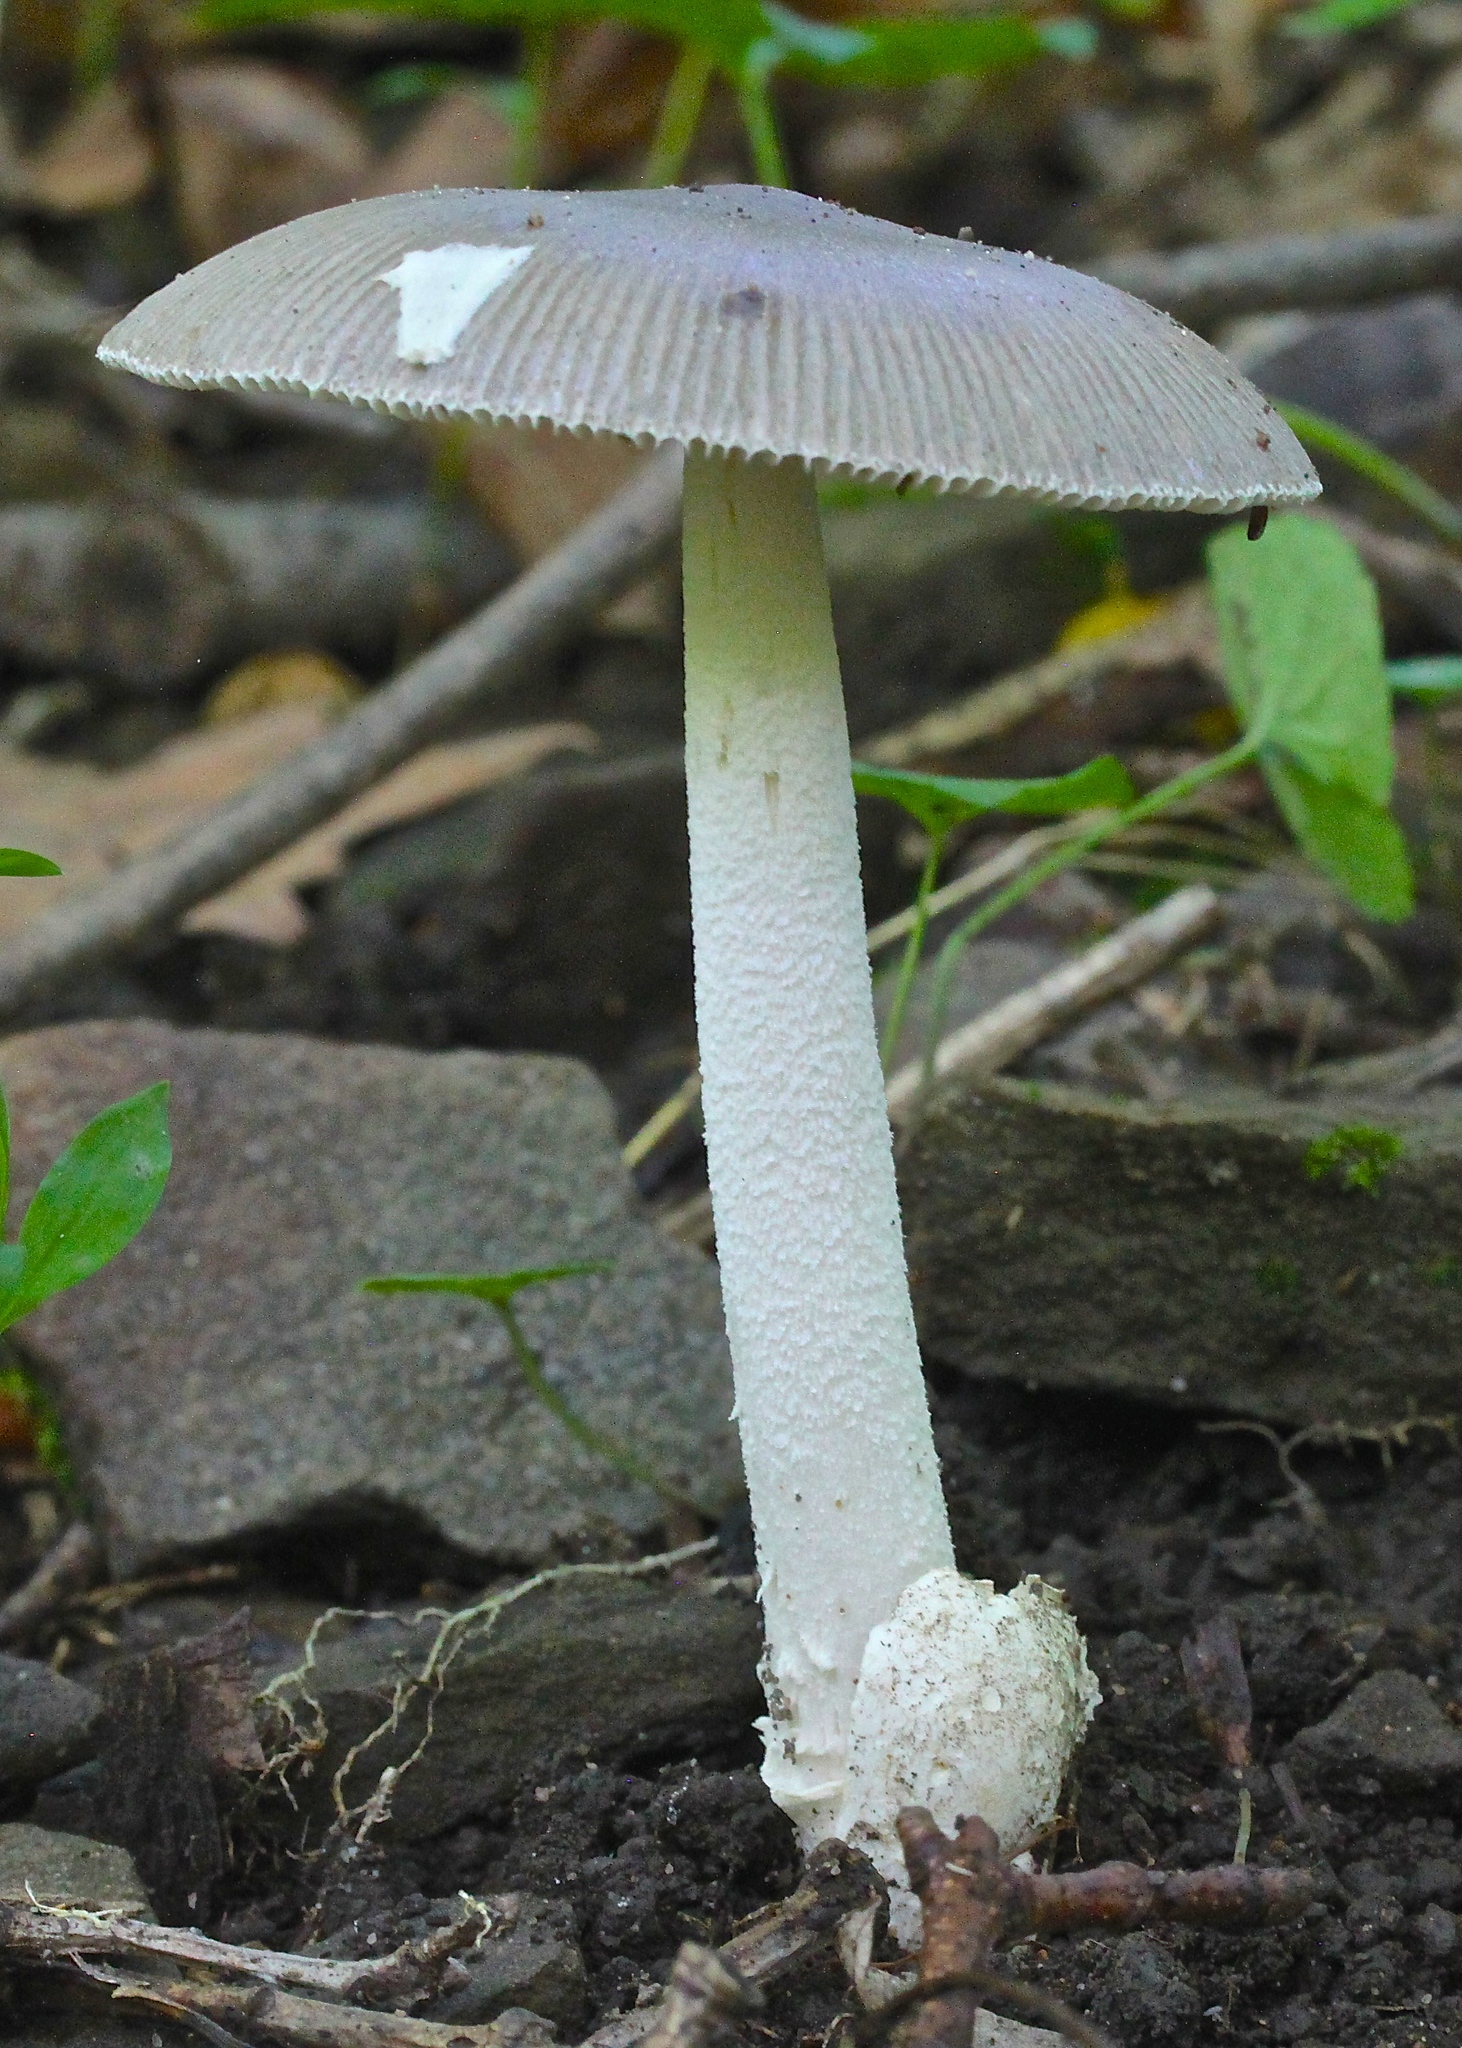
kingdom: Fungi
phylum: Basidiomycota
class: Agaricomycetes
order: Agaricales
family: Amanitaceae
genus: Amanita
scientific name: Amanita vaginata
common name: Grisette
